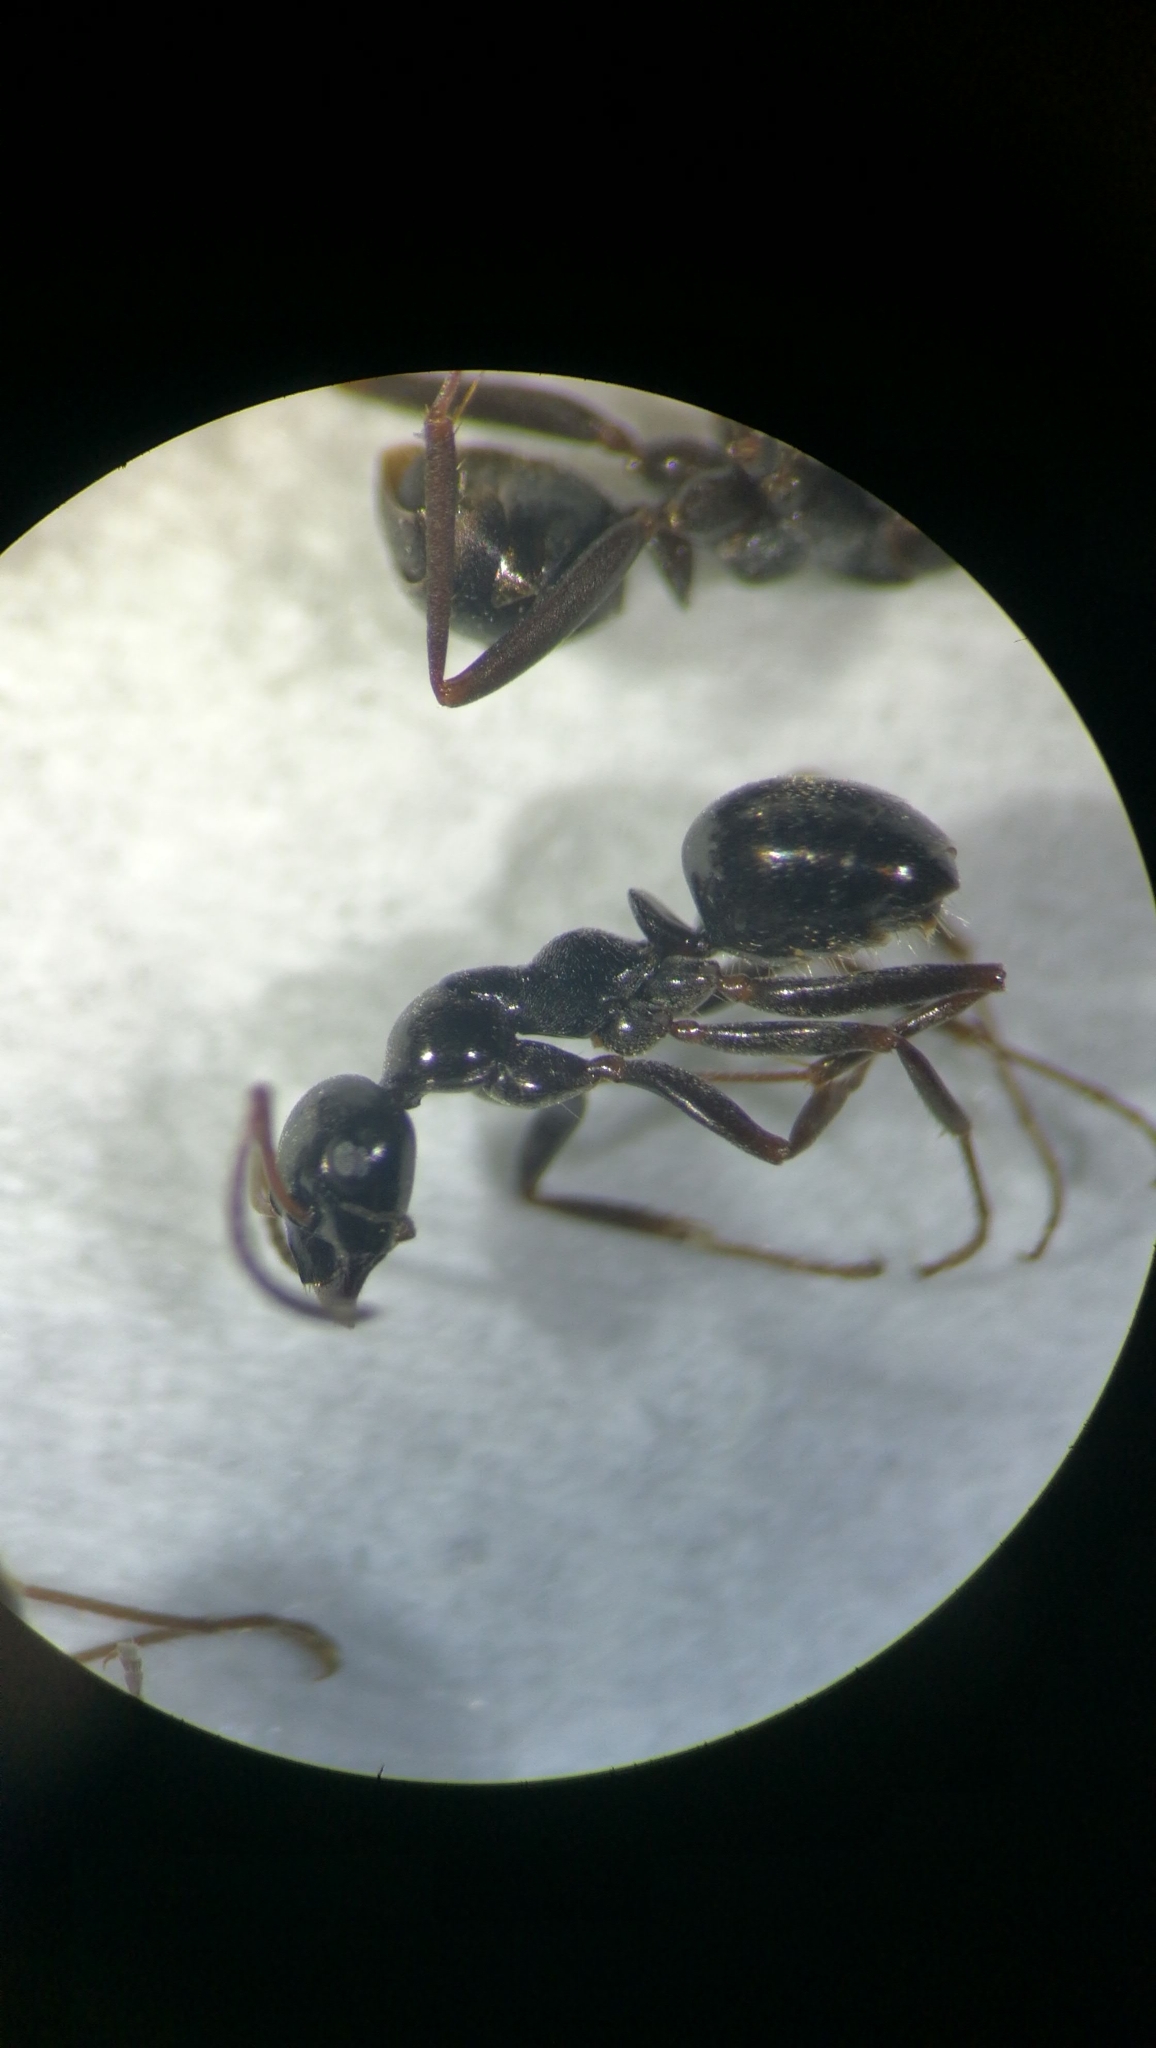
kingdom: Animalia
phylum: Arthropoda
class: Insecta
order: Hymenoptera
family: Formicidae
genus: Formica
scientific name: Formica gagates
